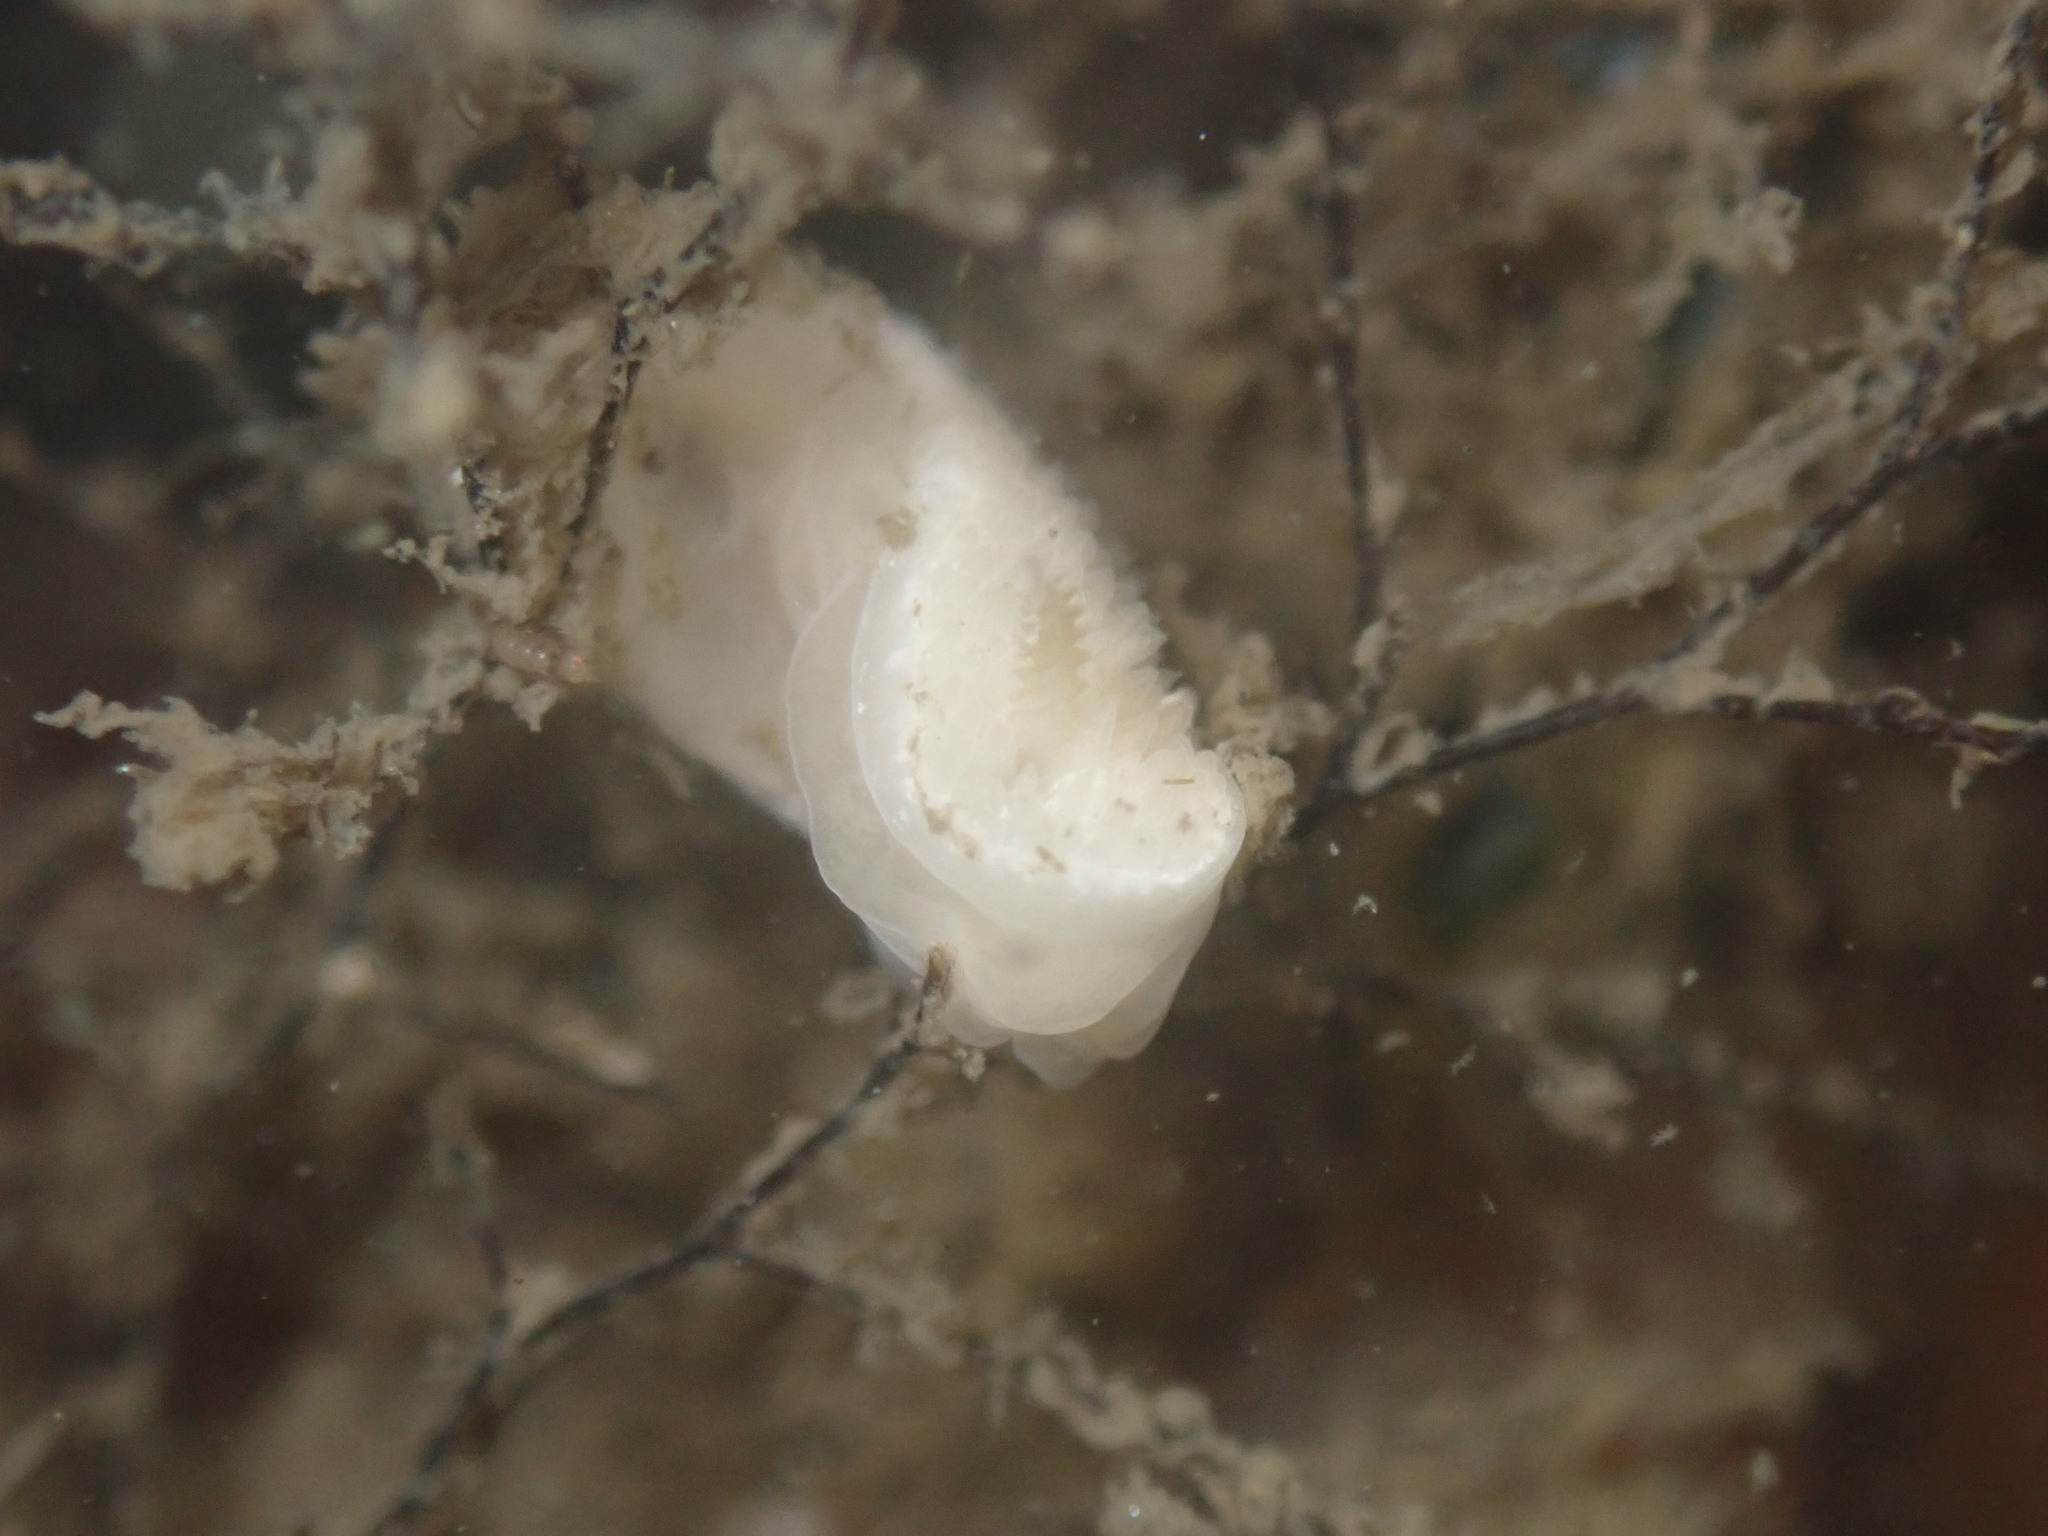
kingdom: Animalia
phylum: Mollusca
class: Gastropoda
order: Nudibranchia
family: Calycidorididae
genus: Diaphorodoris
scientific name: Diaphorodoris lirulatocauda
